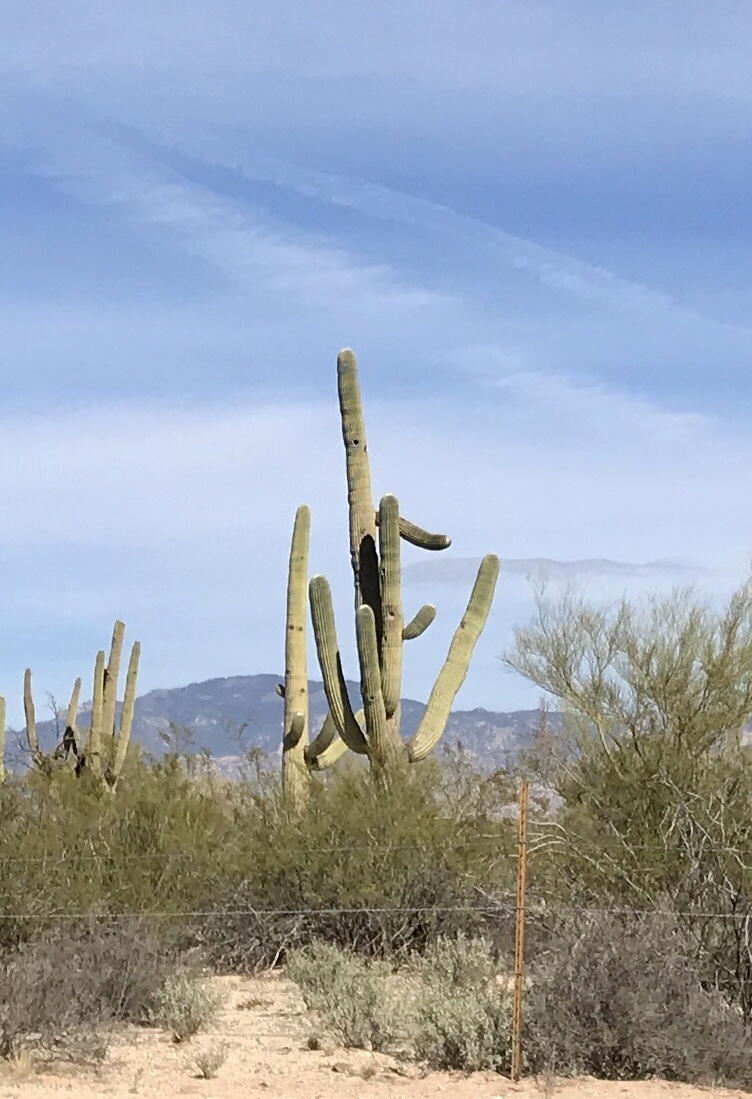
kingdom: Plantae
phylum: Tracheophyta
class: Magnoliopsida
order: Caryophyllales
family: Cactaceae
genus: Carnegiea
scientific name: Carnegiea gigantea
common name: Saguaro
